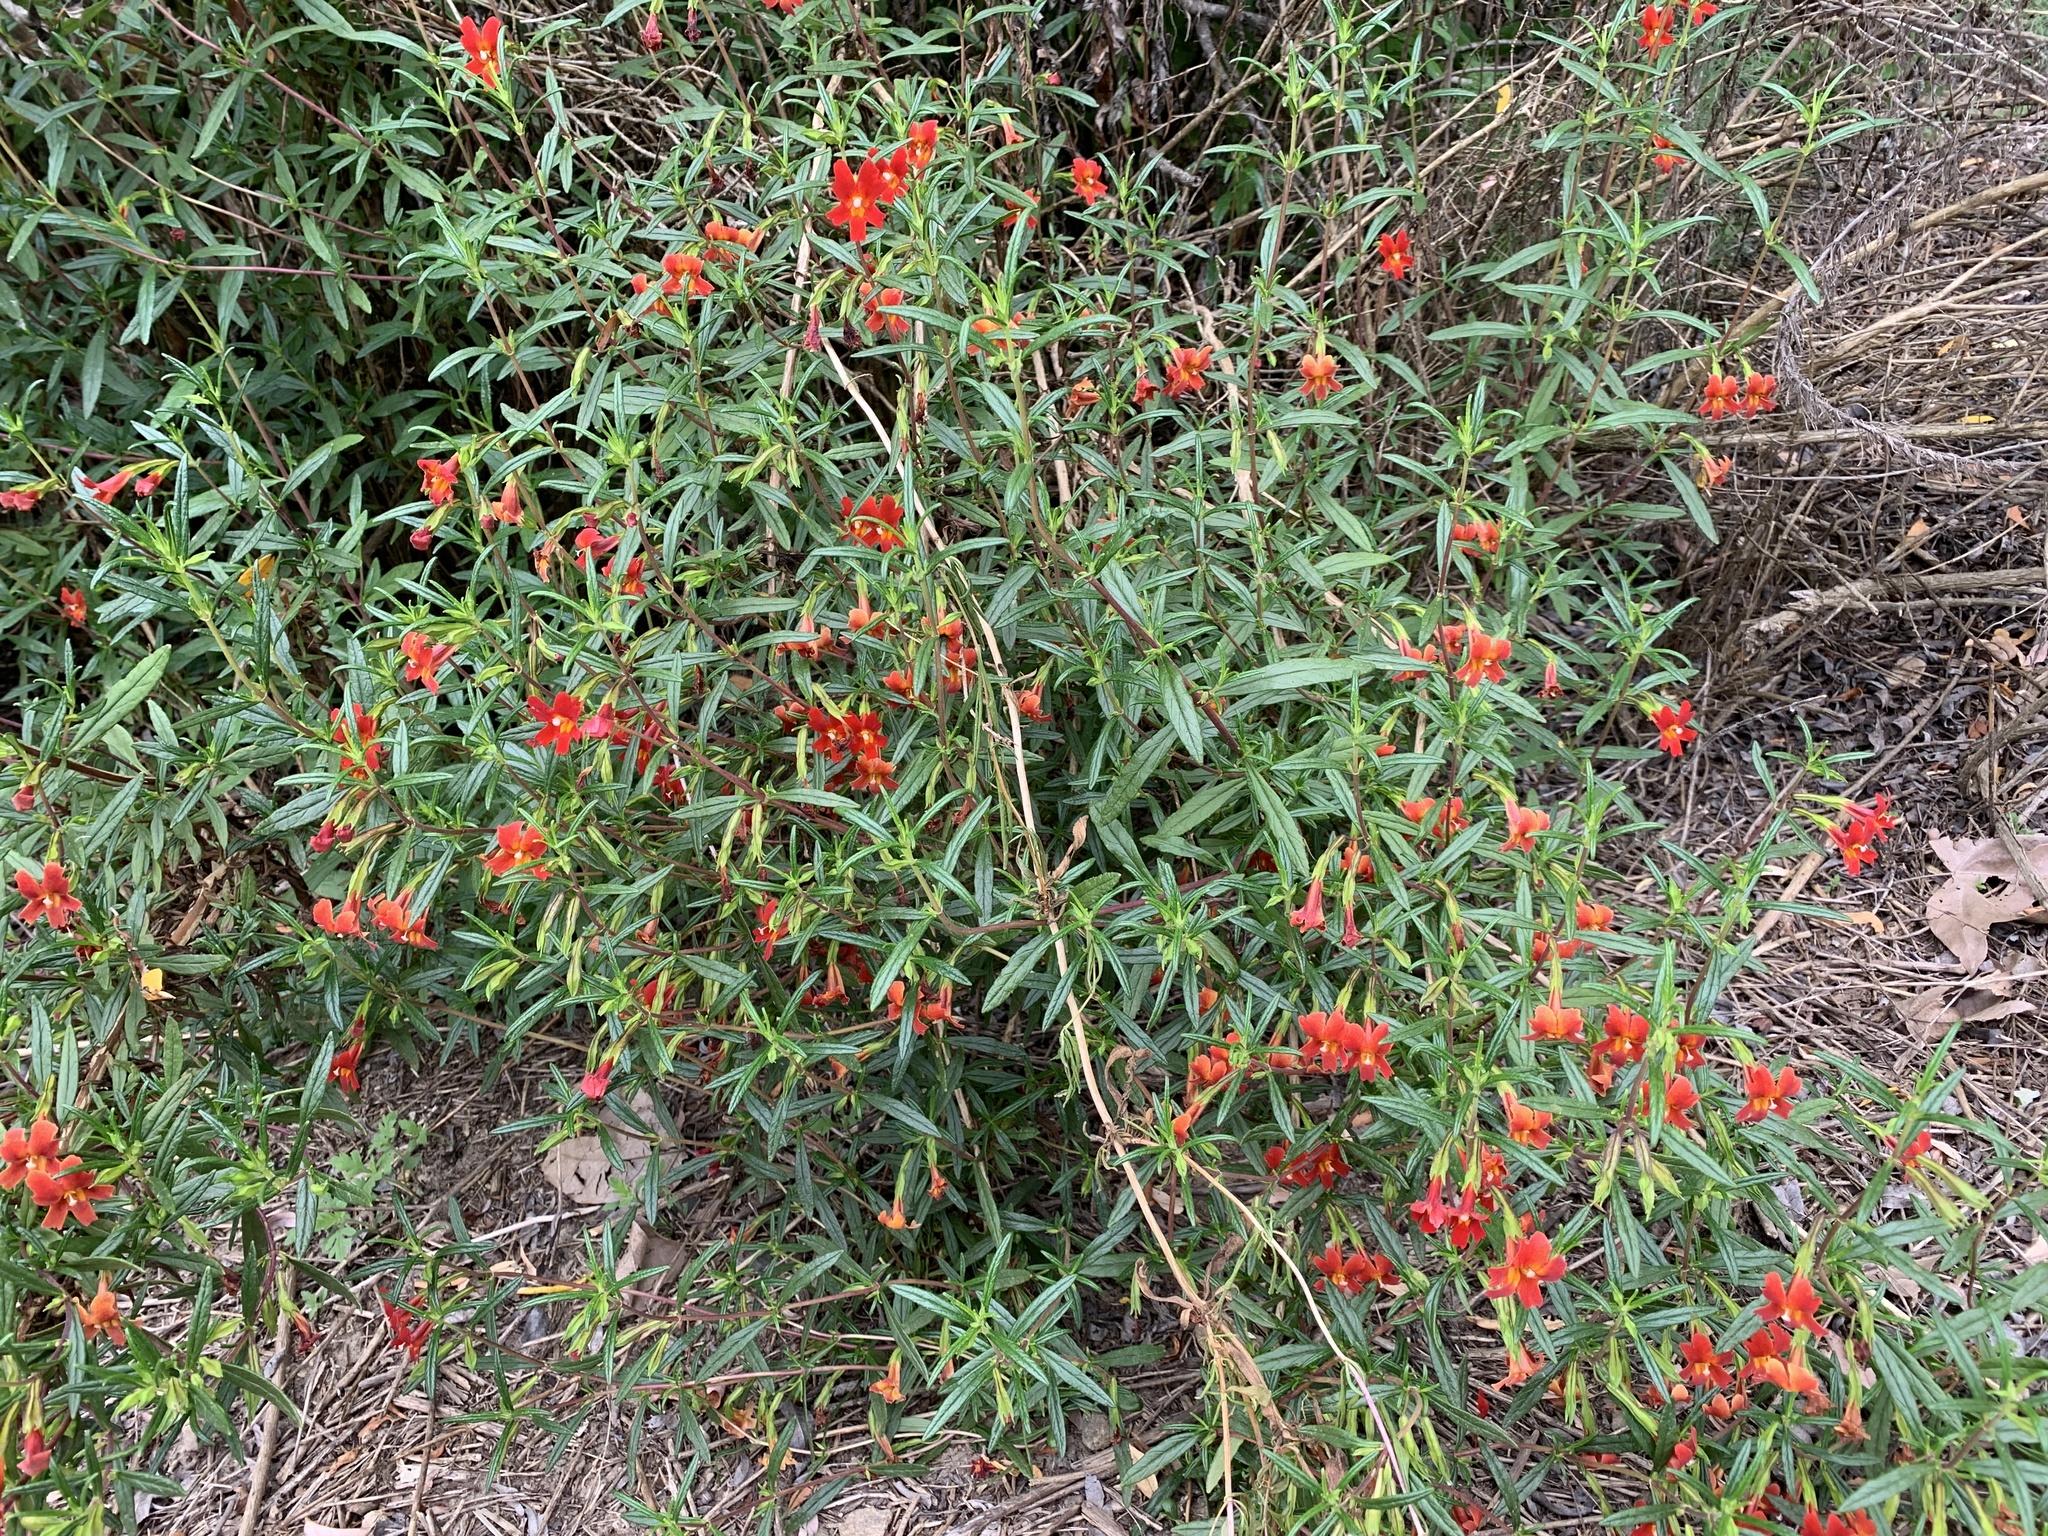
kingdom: Plantae
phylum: Tracheophyta
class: Magnoliopsida
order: Lamiales
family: Phrymaceae
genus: Diplacus
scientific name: Diplacus puniceus
